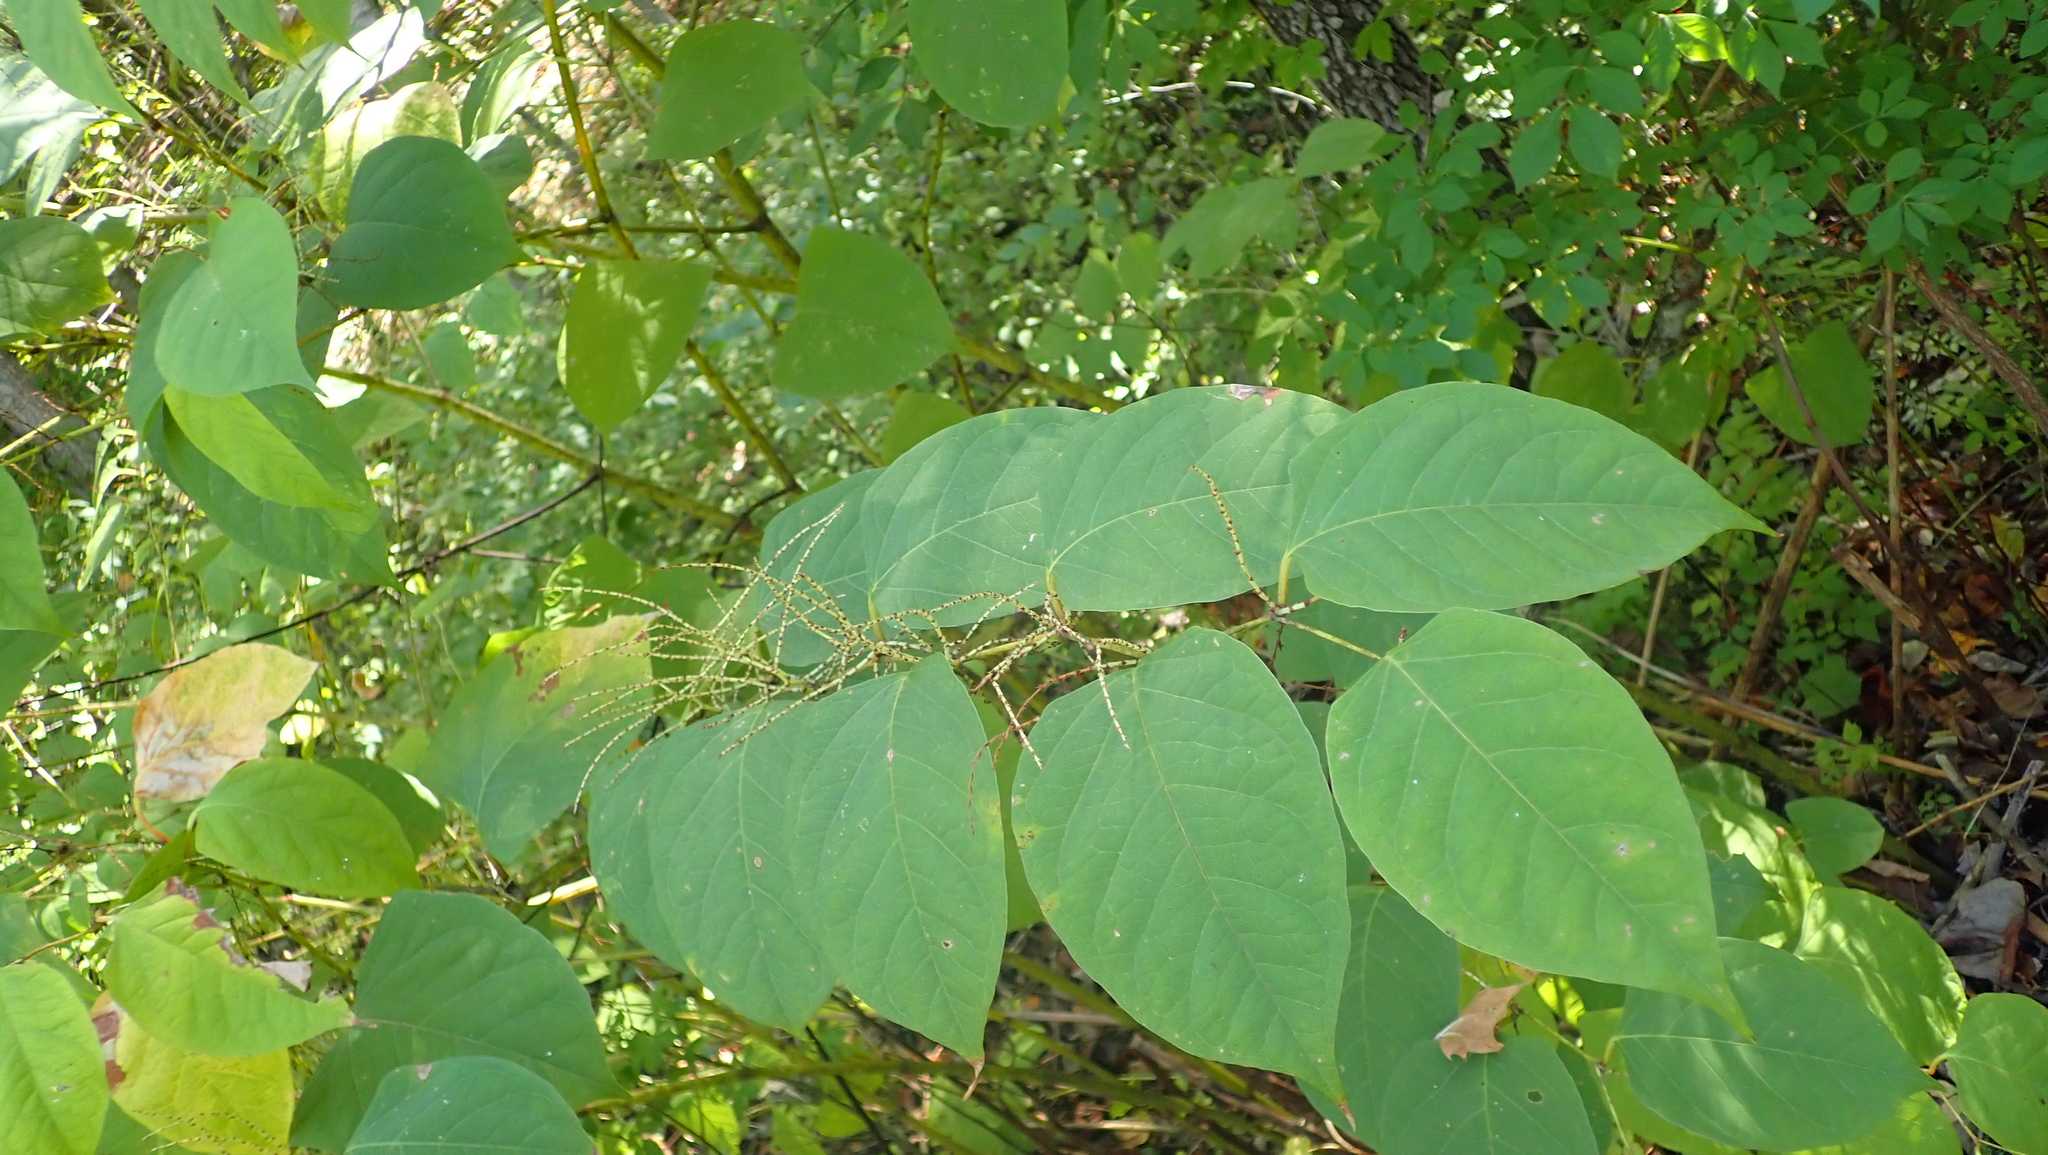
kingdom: Plantae
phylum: Tracheophyta
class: Magnoliopsida
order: Caryophyllales
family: Polygonaceae
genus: Reynoutria
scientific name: Reynoutria japonica
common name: Japanese knotweed
